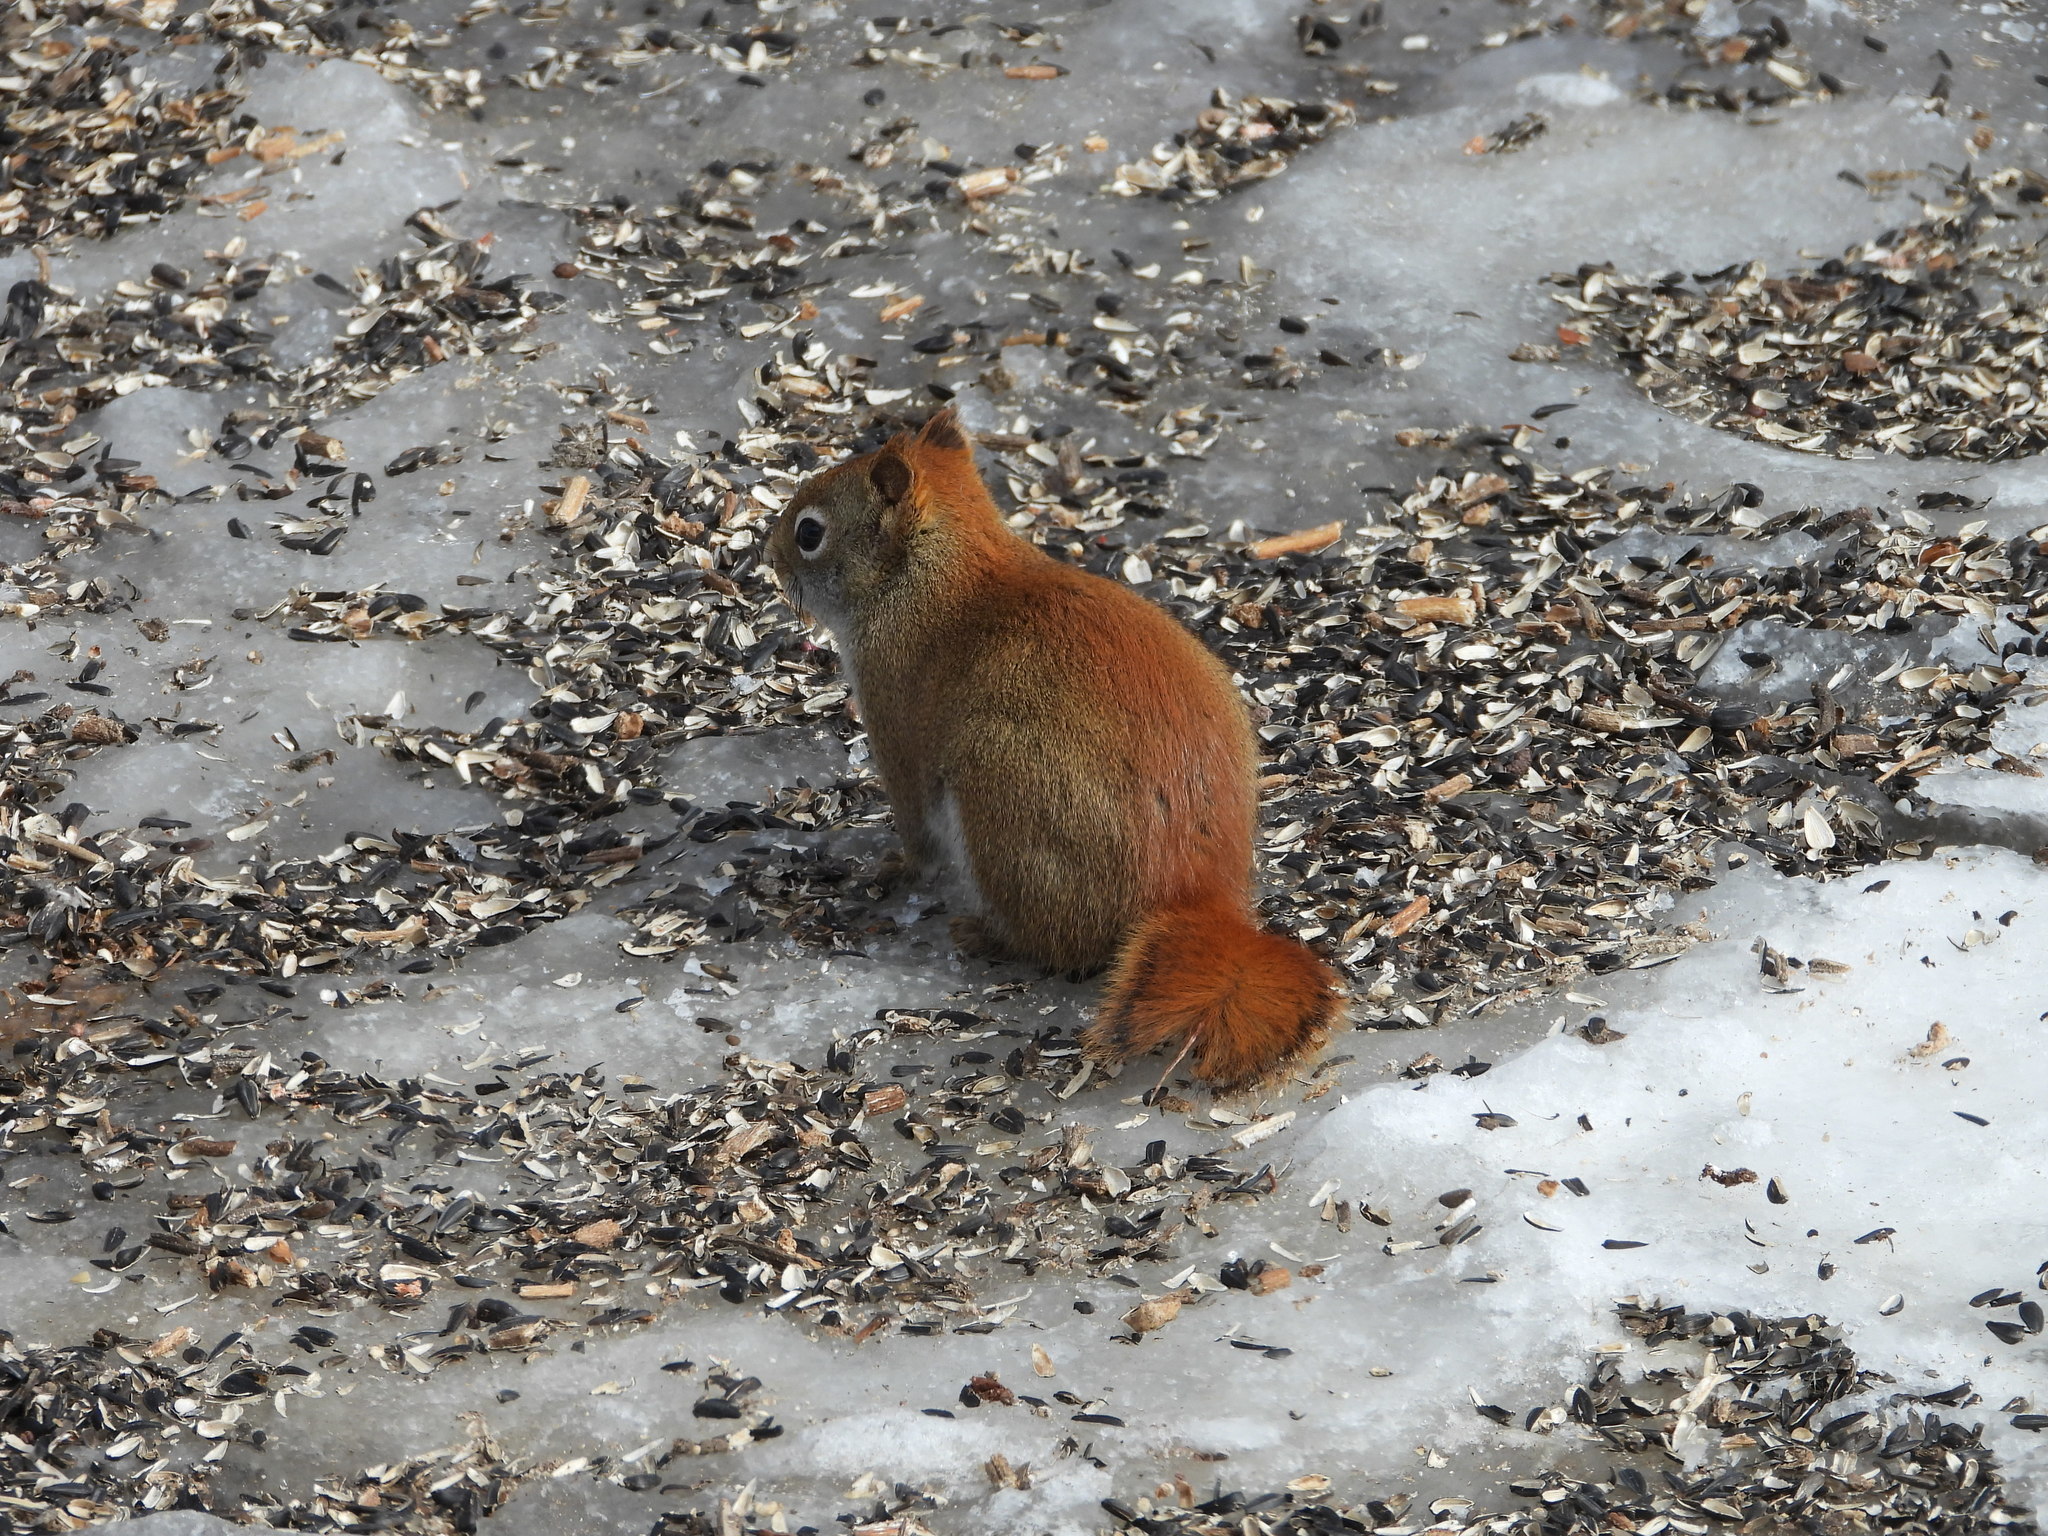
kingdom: Animalia
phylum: Chordata
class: Mammalia
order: Rodentia
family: Sciuridae
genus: Tamiasciurus
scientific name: Tamiasciurus hudsonicus
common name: Red squirrel
